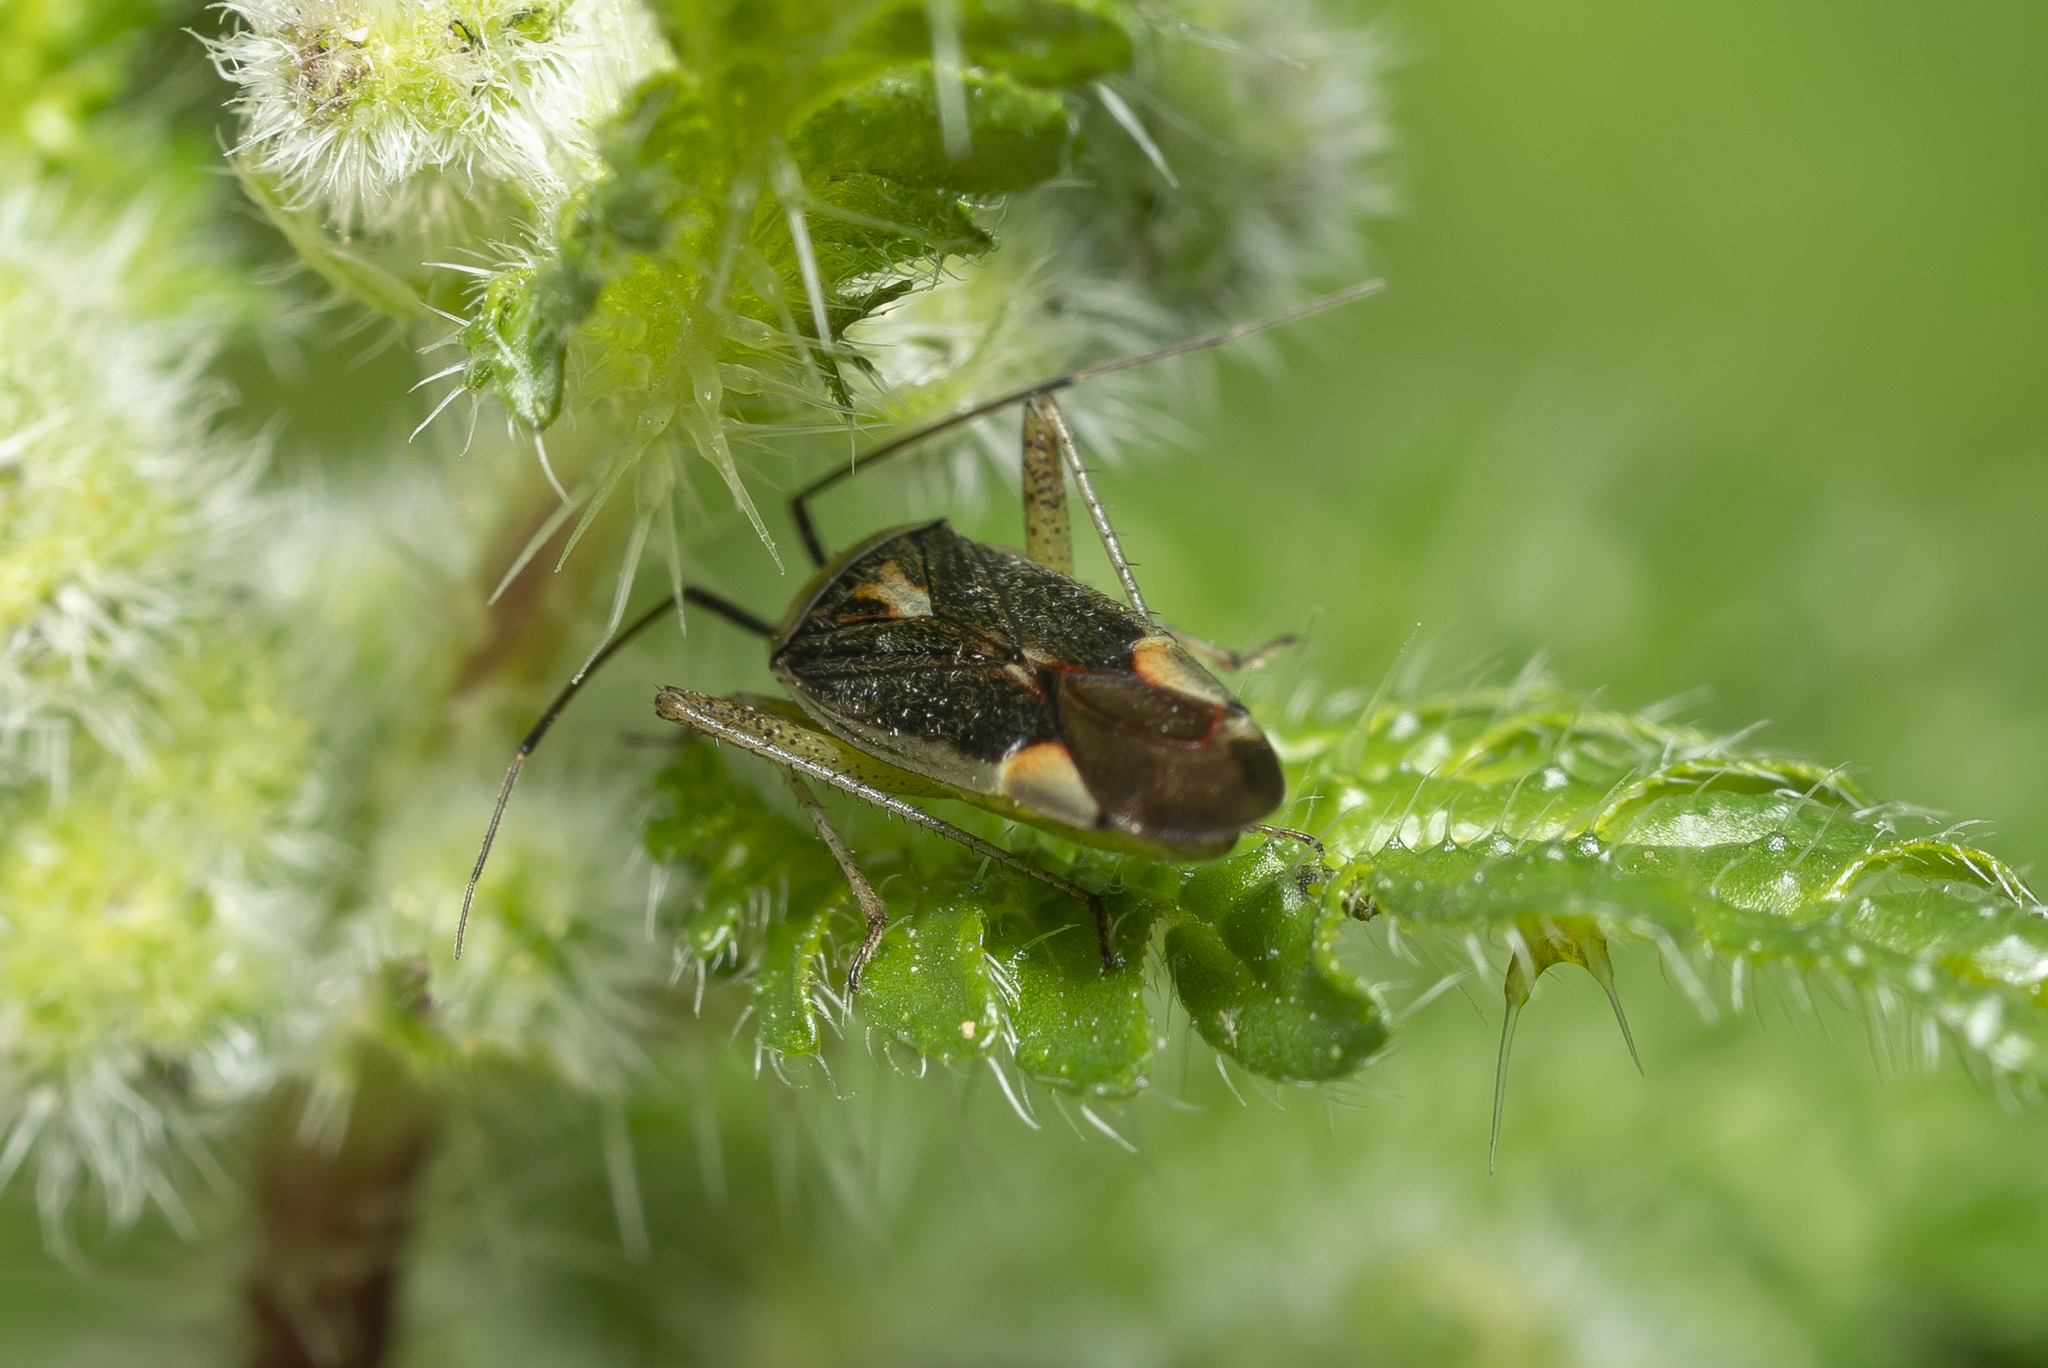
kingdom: Animalia
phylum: Arthropoda
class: Insecta
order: Hemiptera
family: Miridae
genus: Closterotomus
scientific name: Closterotomus trivialis
